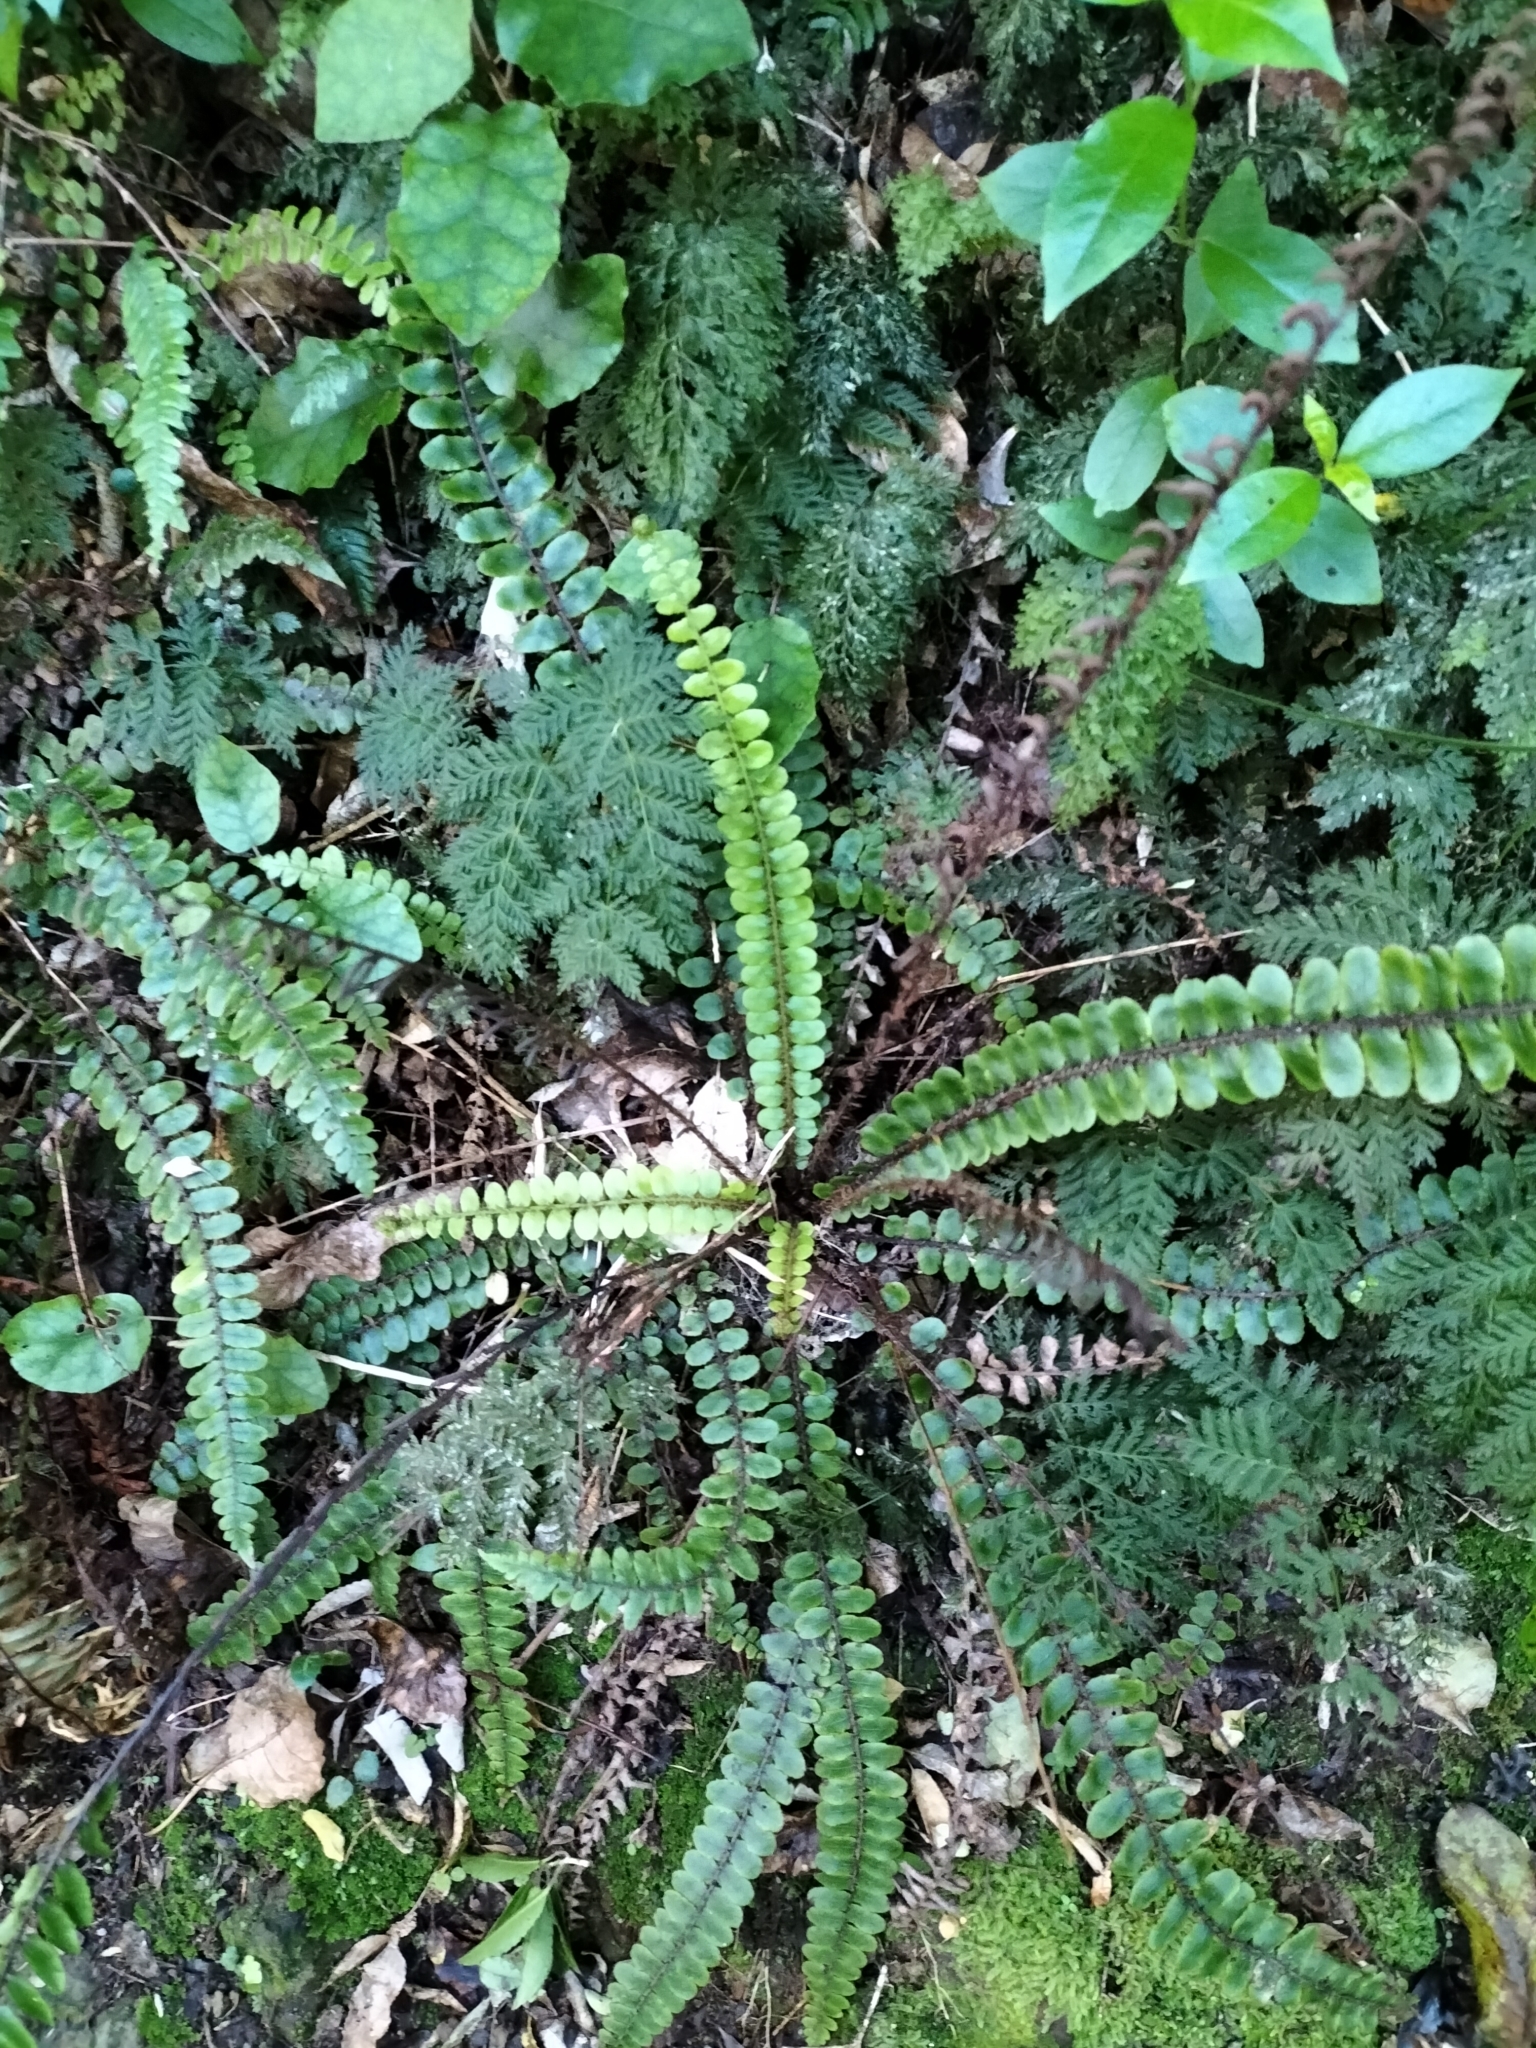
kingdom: Plantae
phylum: Tracheophyta
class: Polypodiopsida
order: Polypodiales
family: Blechnaceae
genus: Cranfillia
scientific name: Cranfillia fluviatilis
